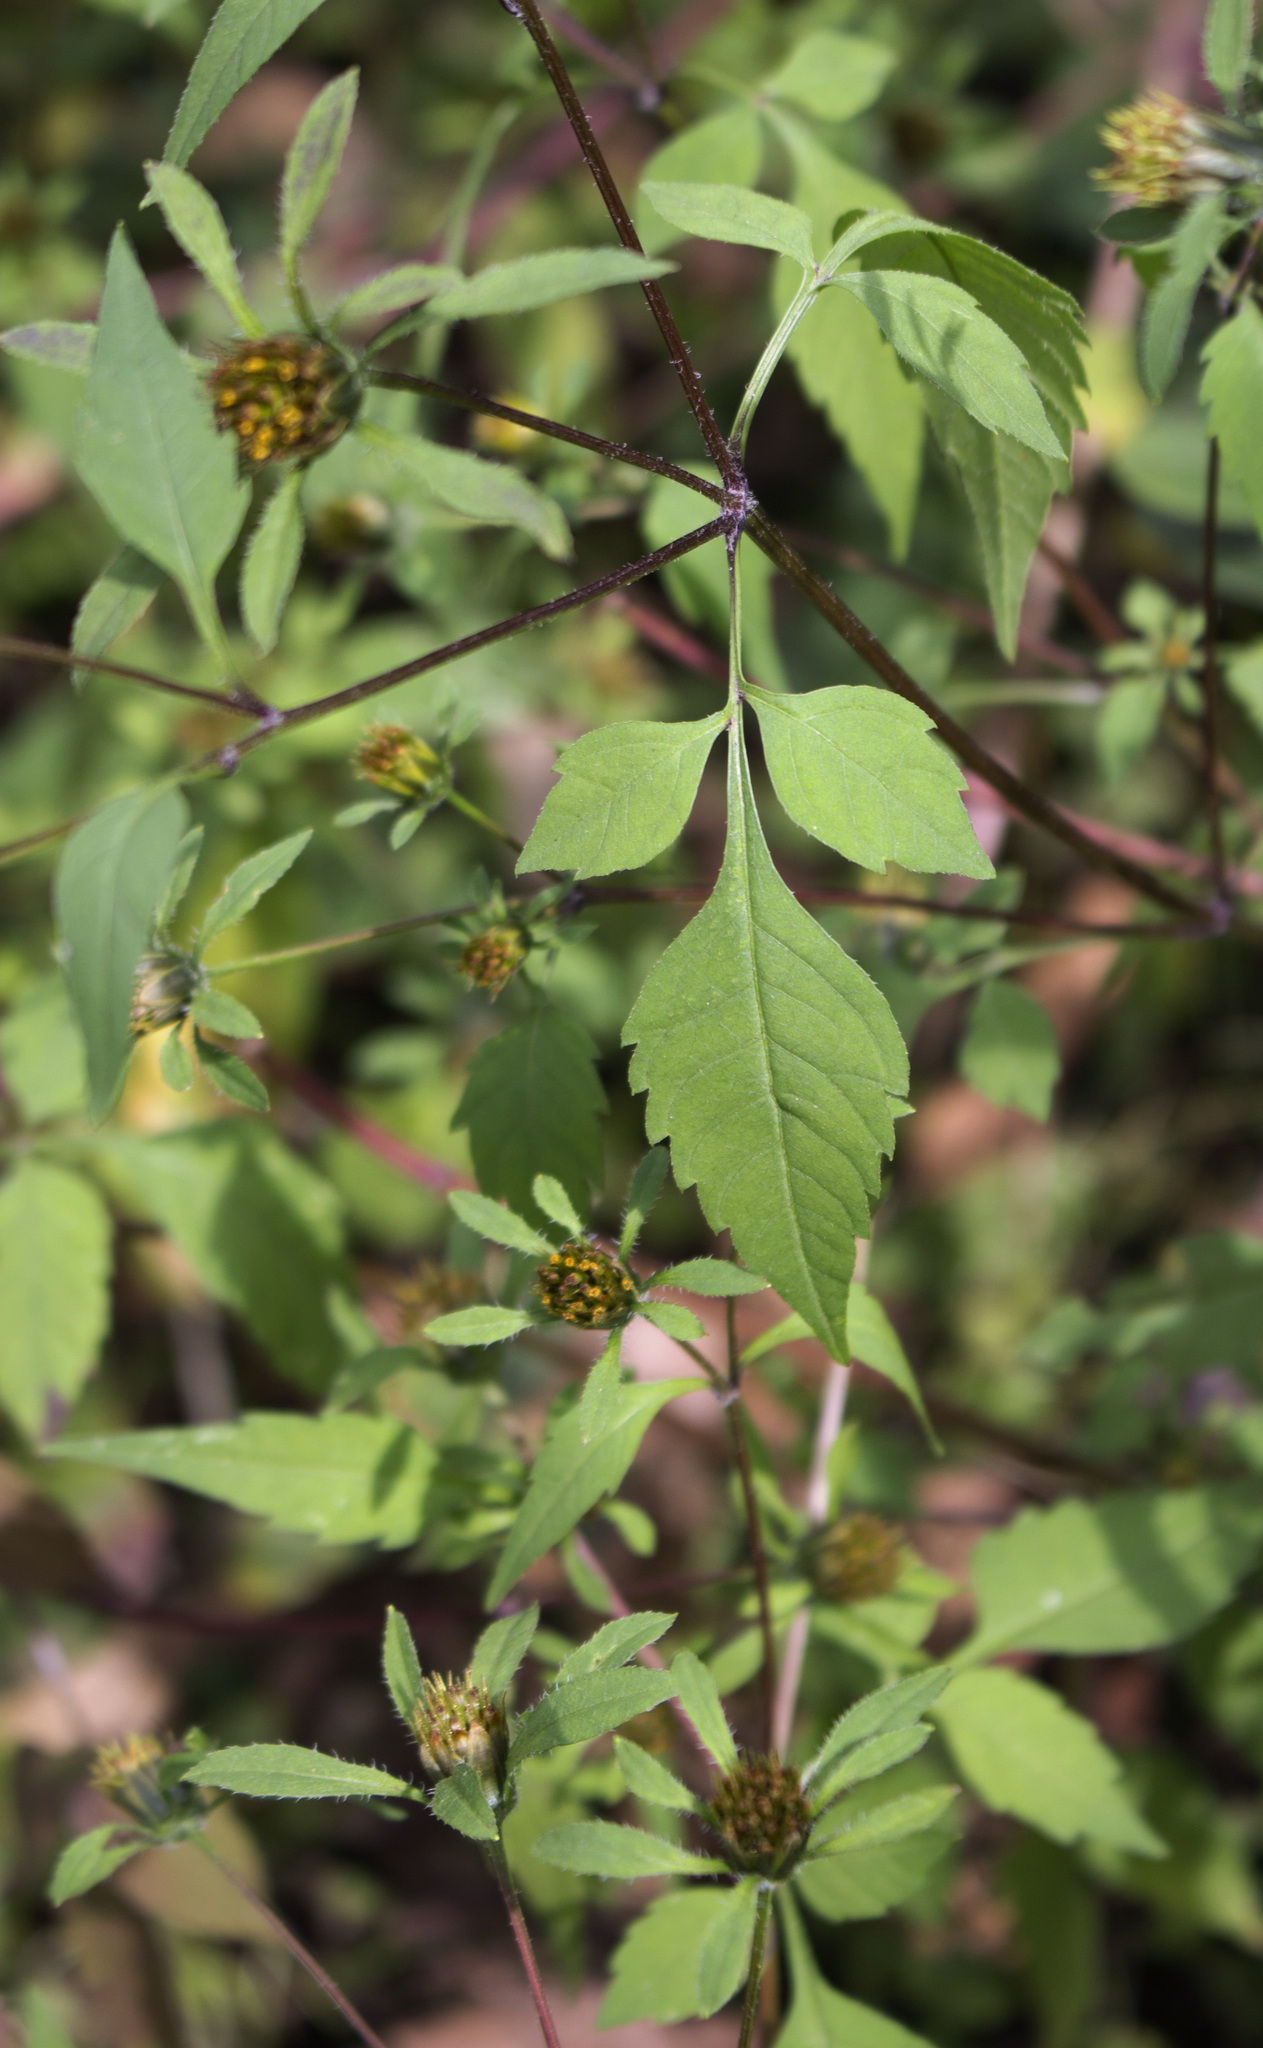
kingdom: Plantae
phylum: Tracheophyta
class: Magnoliopsida
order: Asterales
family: Asteraceae
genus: Bidens
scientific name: Bidens frondosa
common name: Beggarticks
